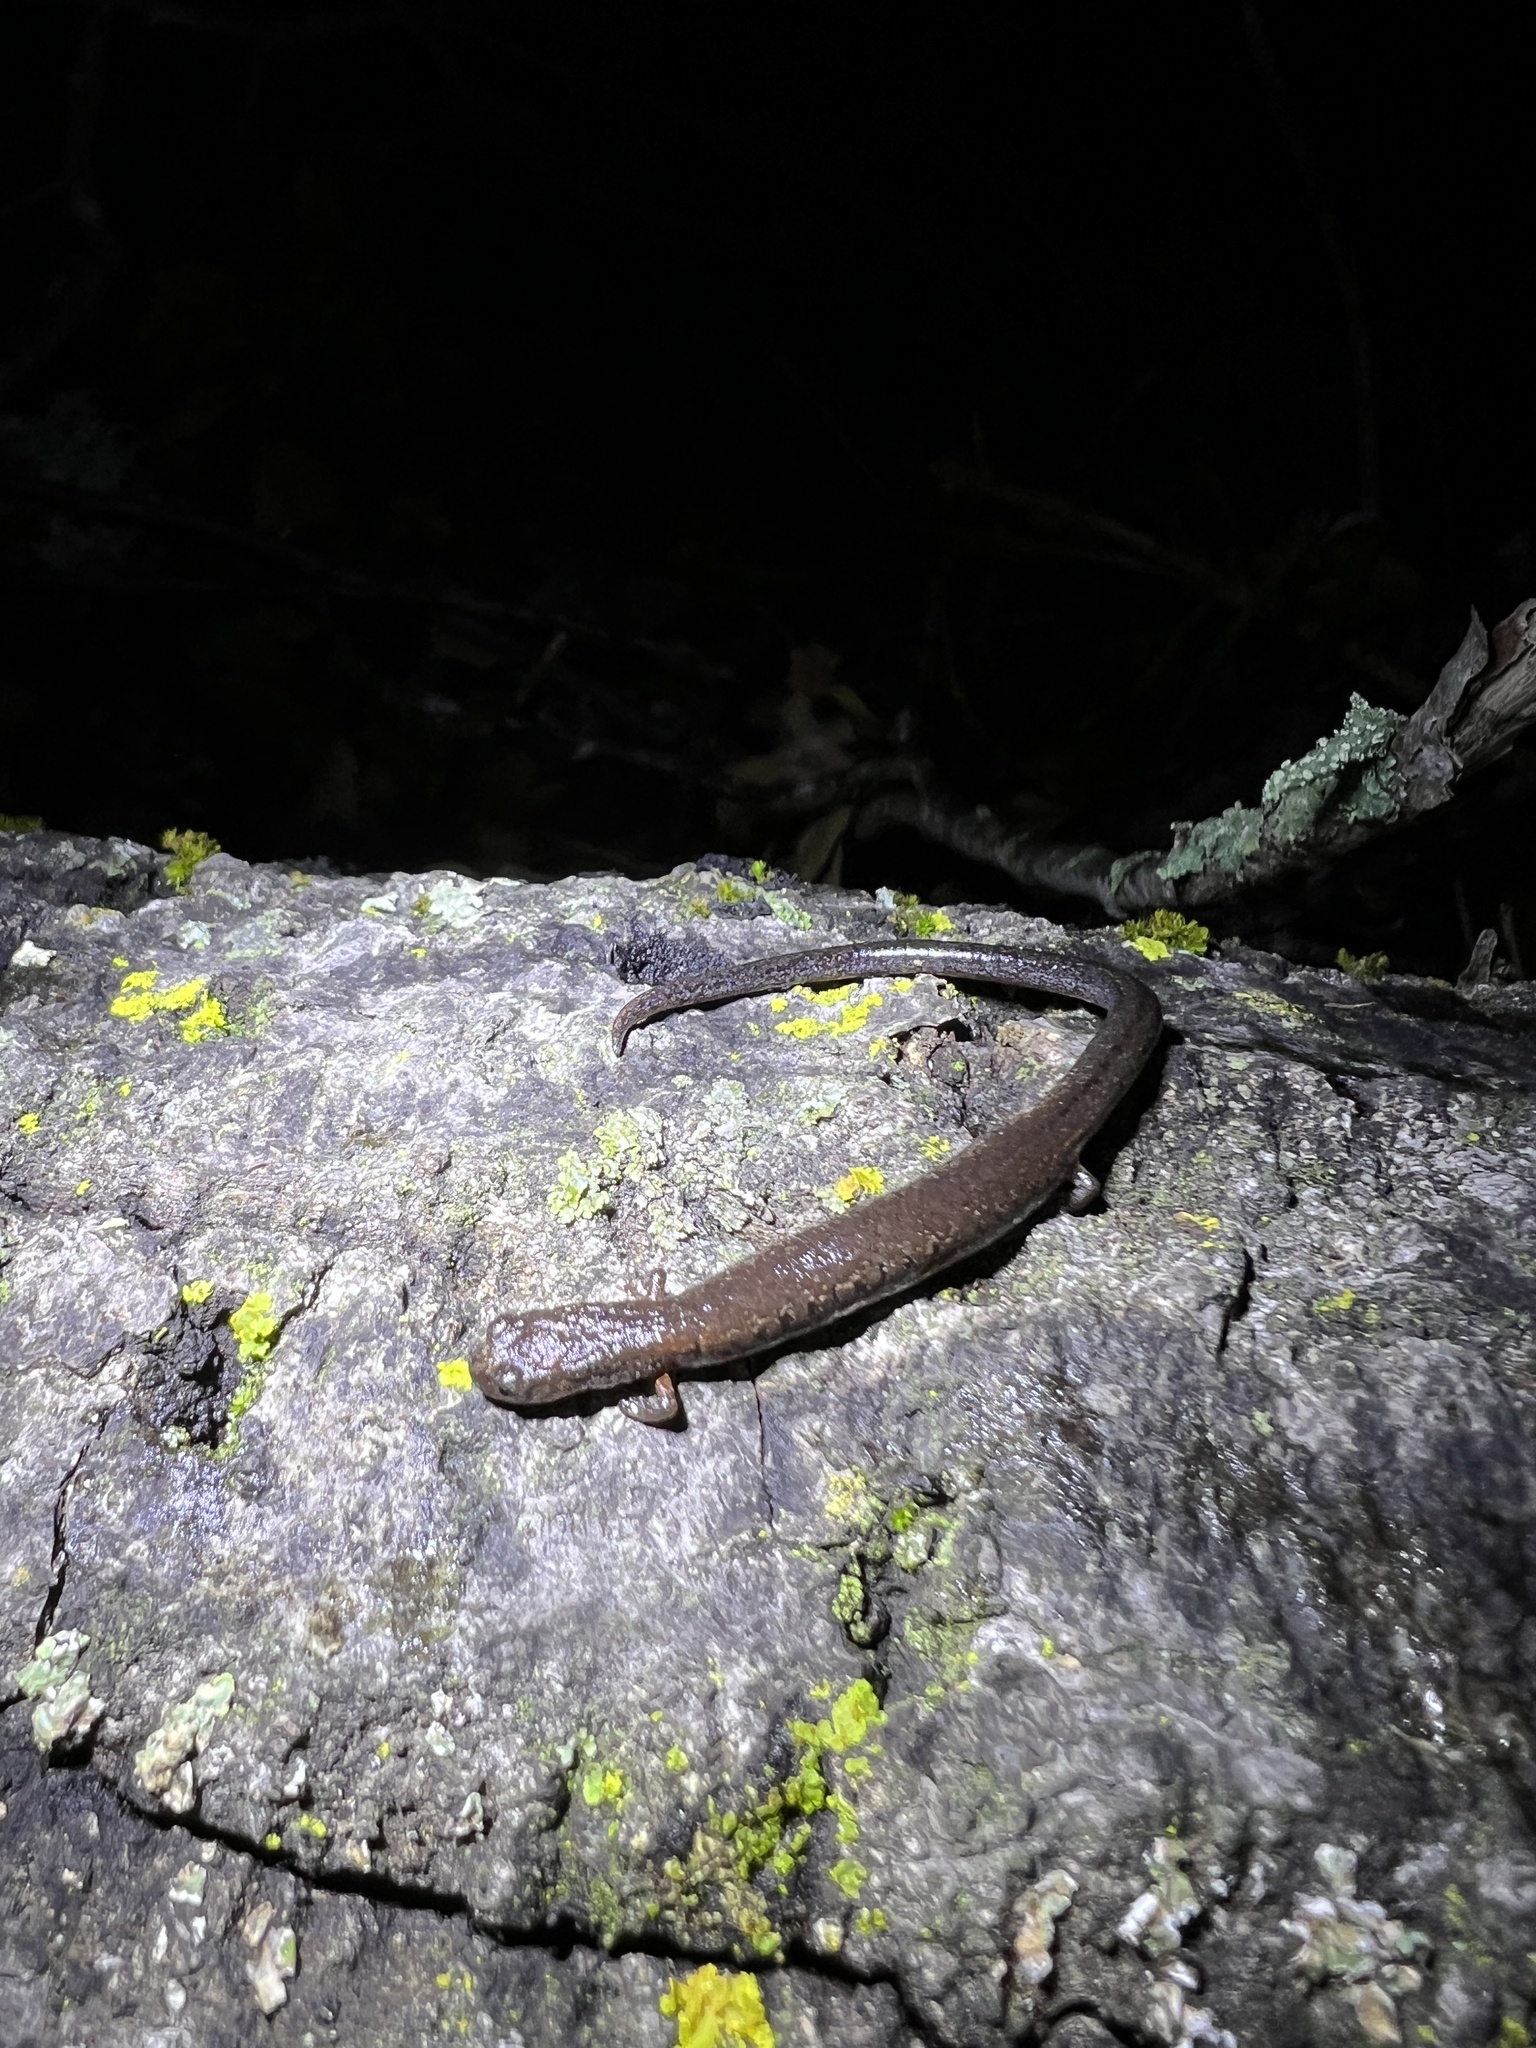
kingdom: Animalia
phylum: Chordata
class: Amphibia
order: Caudata
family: Plethodontidae
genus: Batrachoseps
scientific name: Batrachoseps attenuatus
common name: California slender salamander
